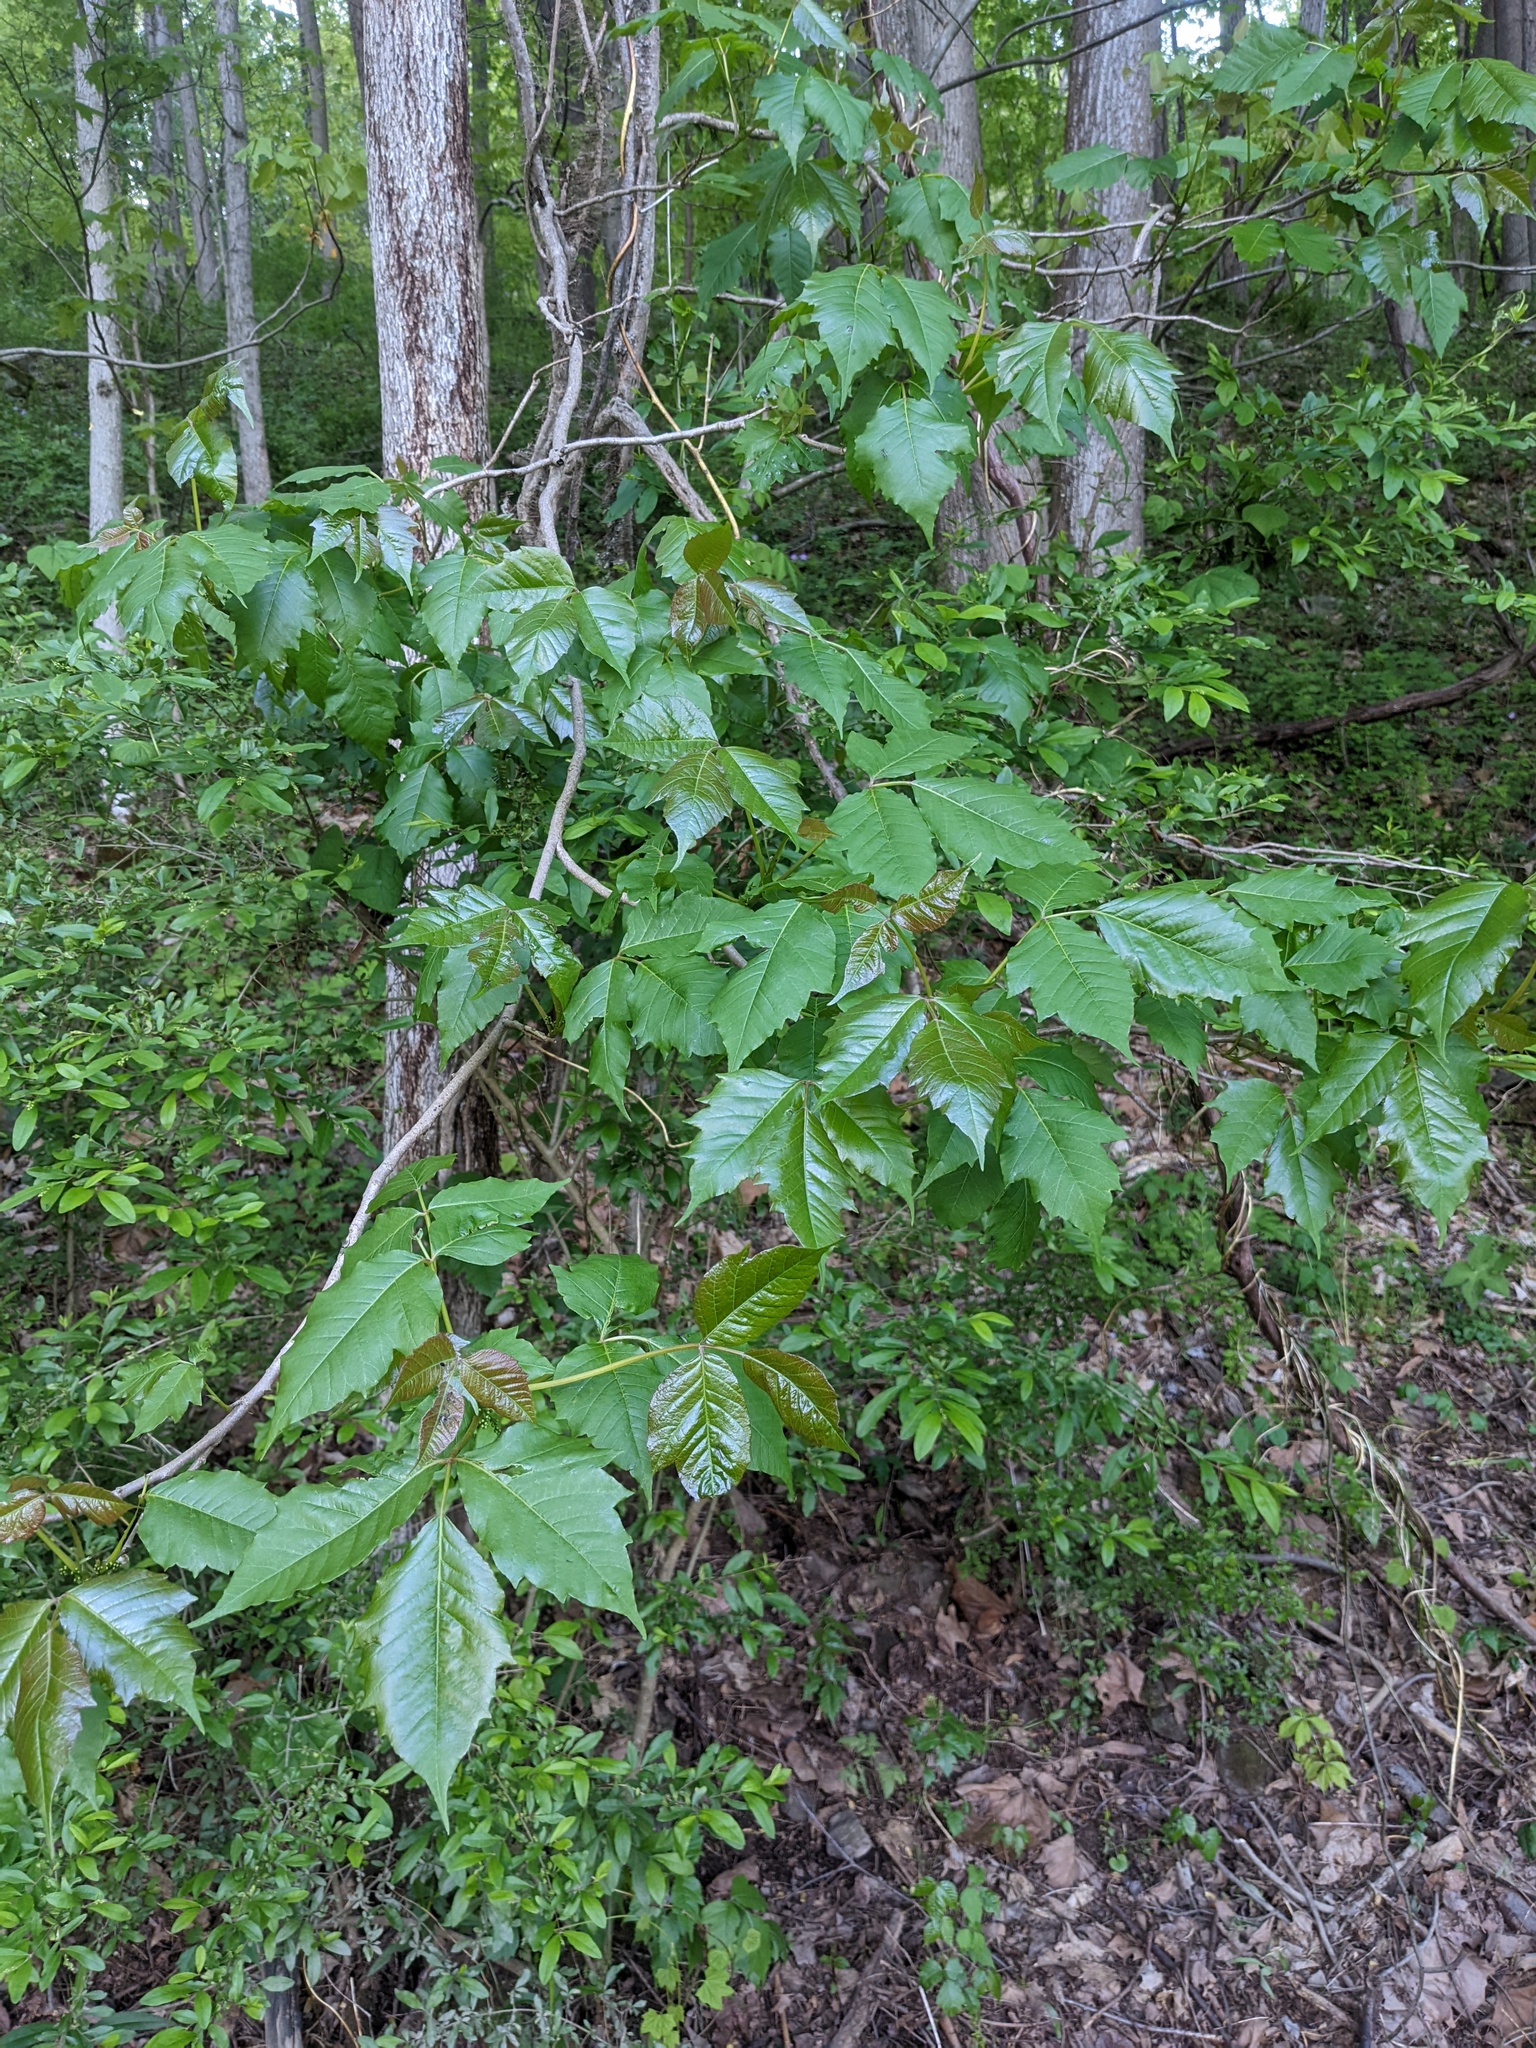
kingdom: Plantae
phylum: Tracheophyta
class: Magnoliopsida
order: Sapindales
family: Anacardiaceae
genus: Toxicodendron
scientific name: Toxicodendron radicans
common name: Poison ivy
